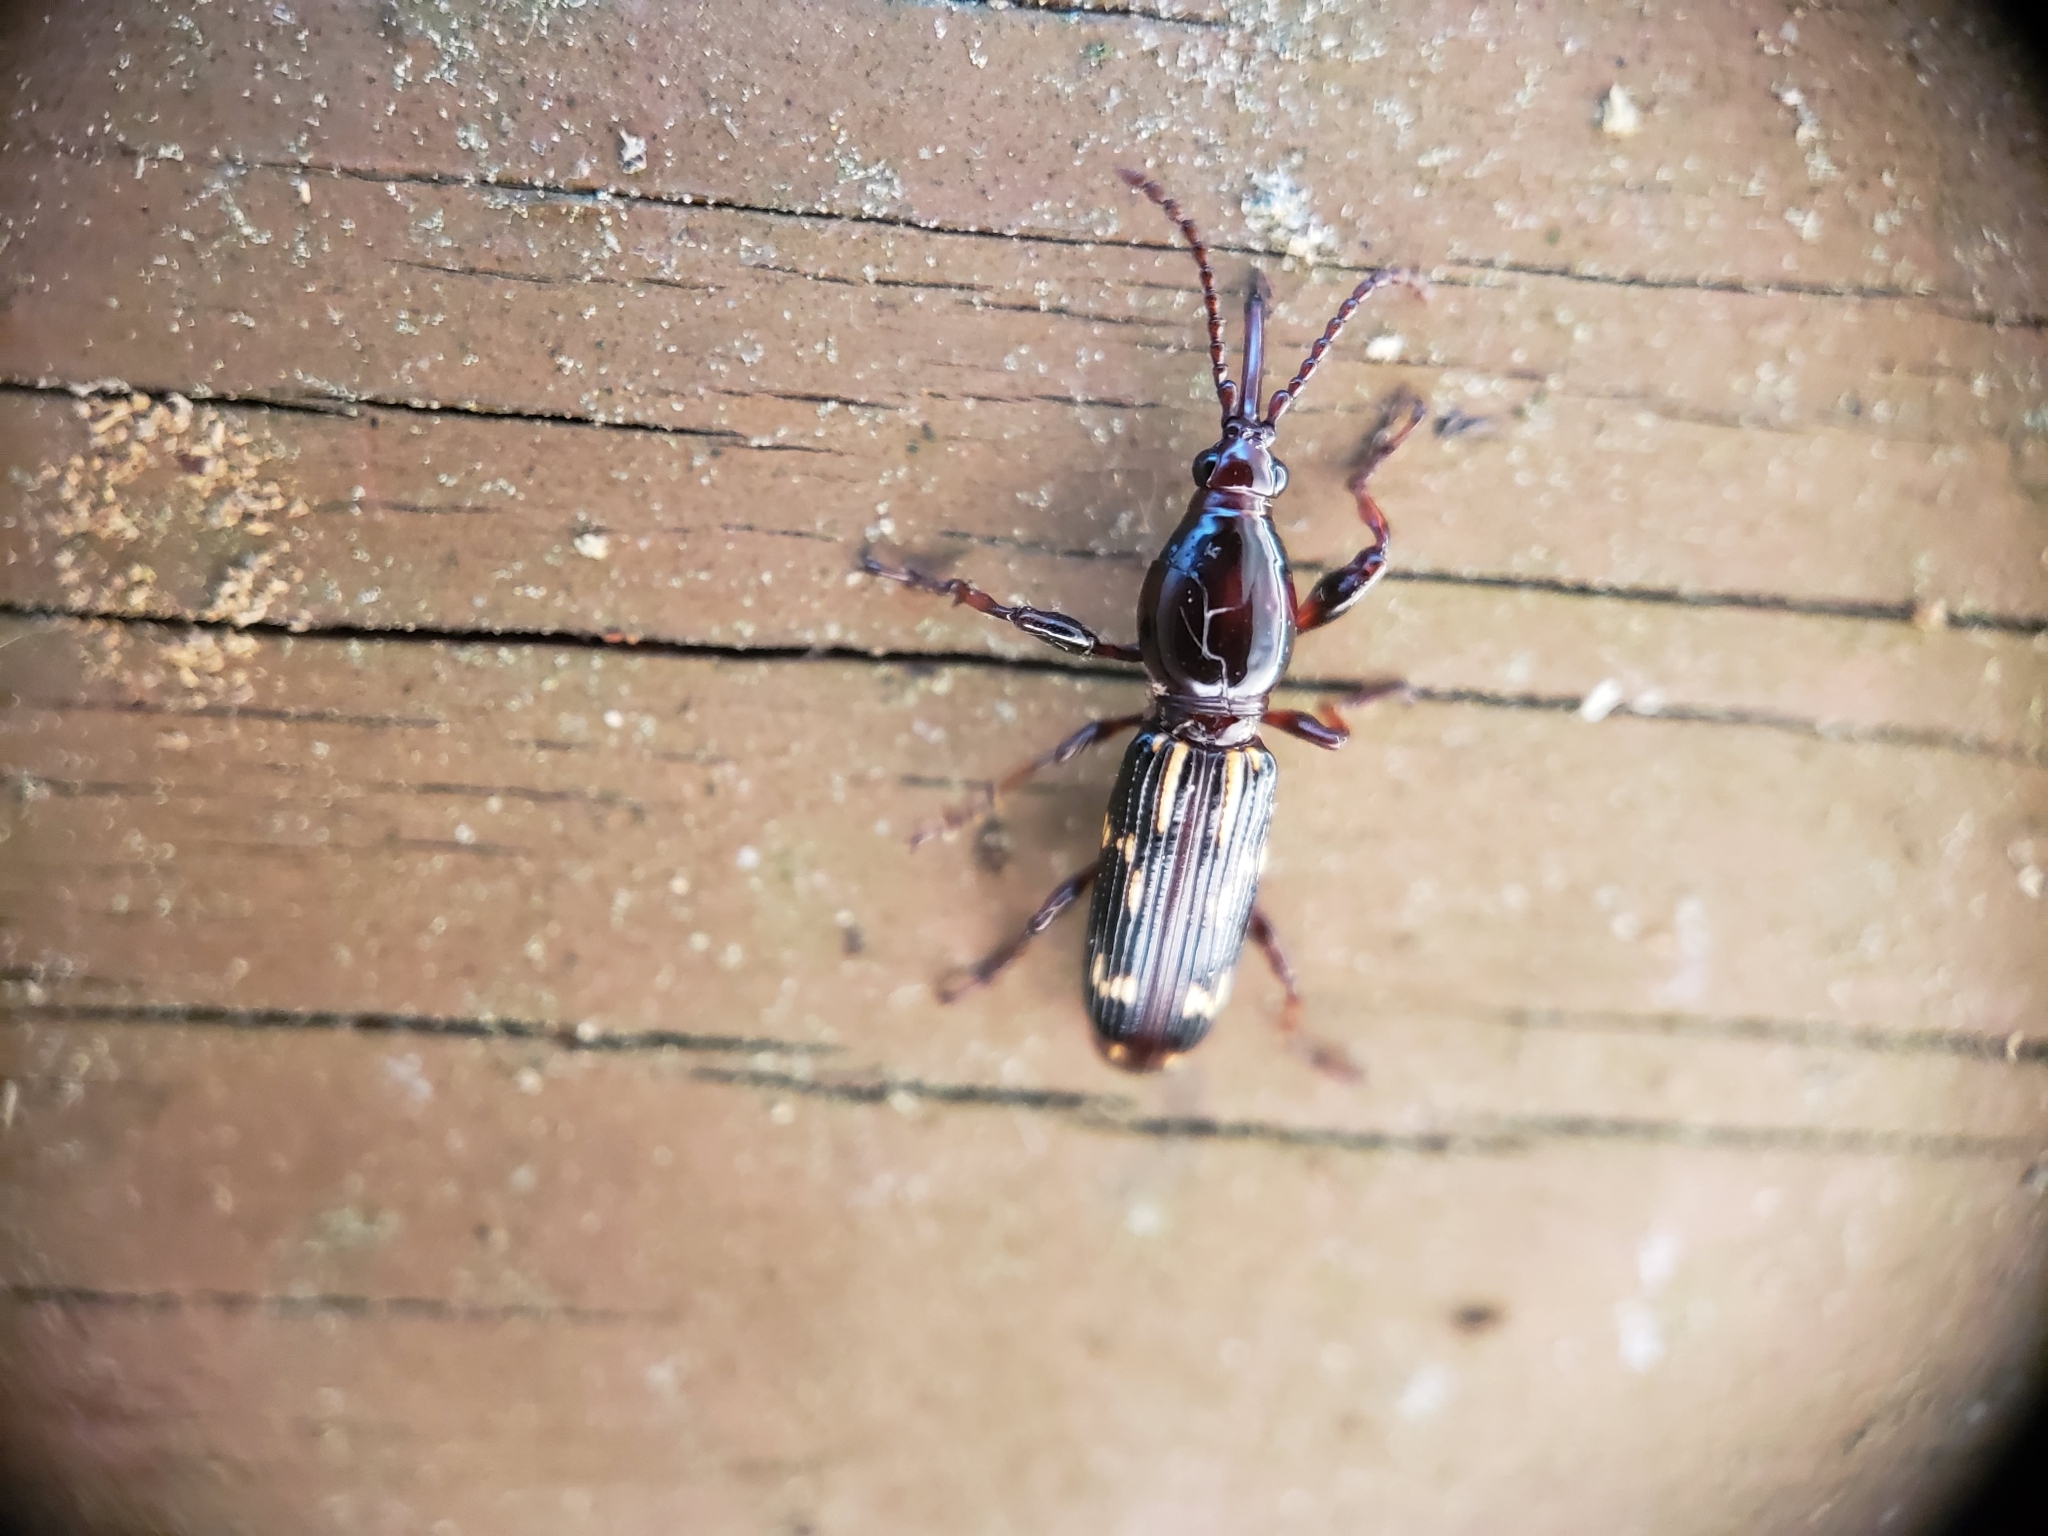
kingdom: Animalia
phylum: Arthropoda
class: Insecta
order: Coleoptera
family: Brentidae
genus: Arrenodes
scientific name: Arrenodes minutus
